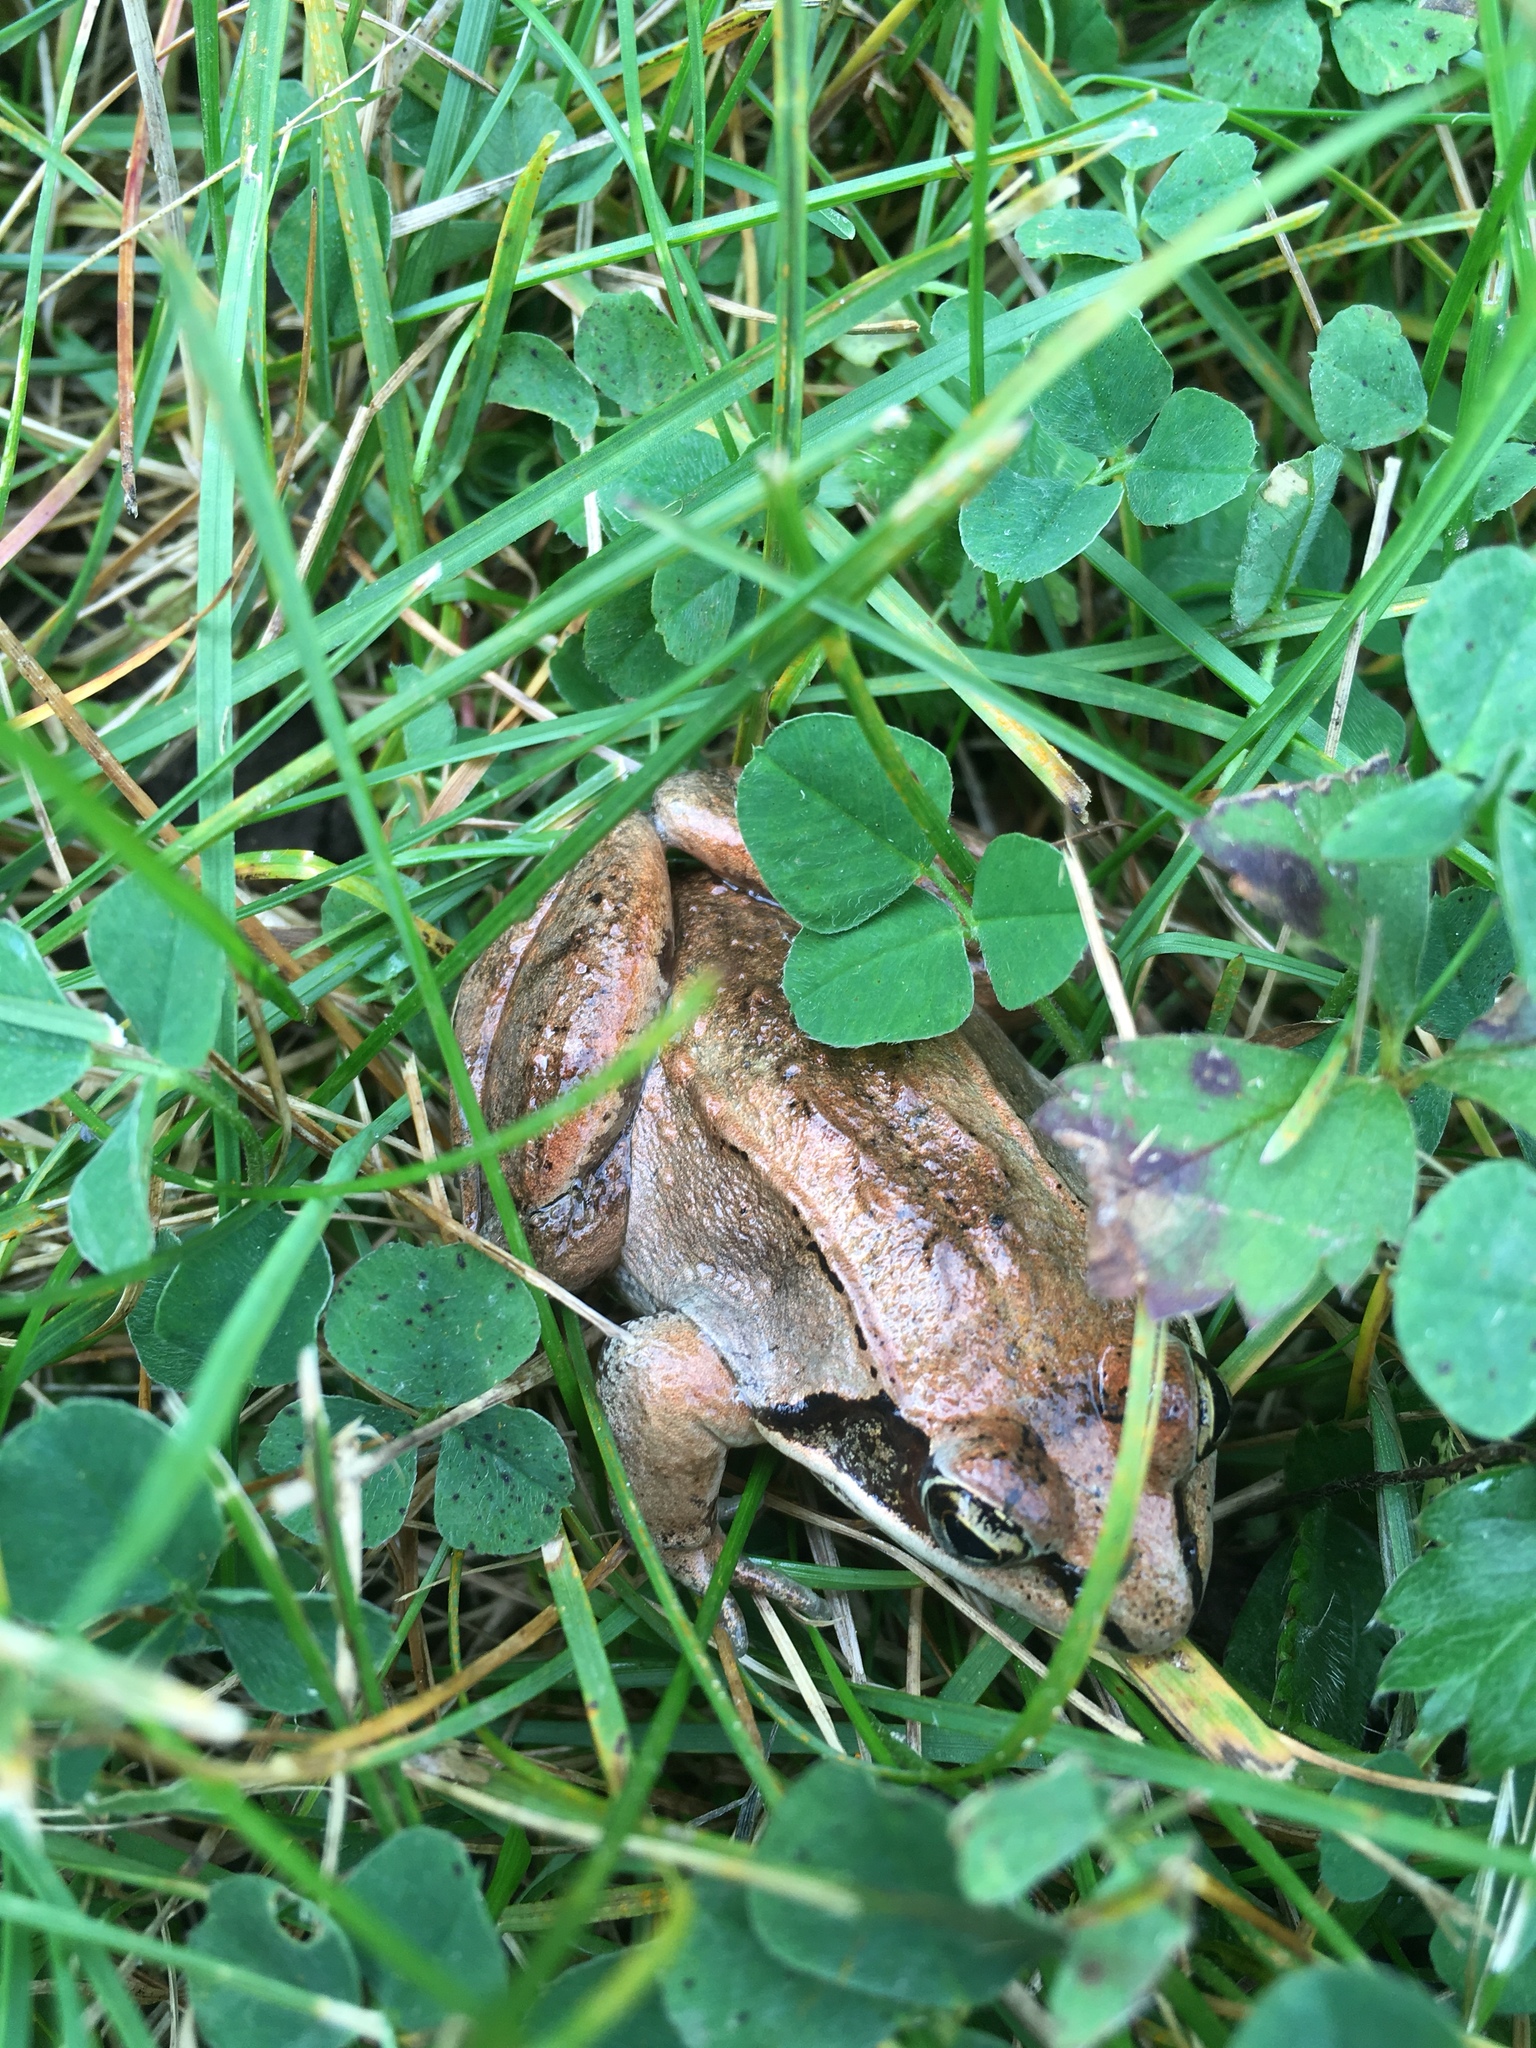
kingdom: Animalia
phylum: Chordata
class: Amphibia
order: Anura
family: Ranidae
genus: Lithobates
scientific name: Lithobates sylvaticus
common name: Wood frog
